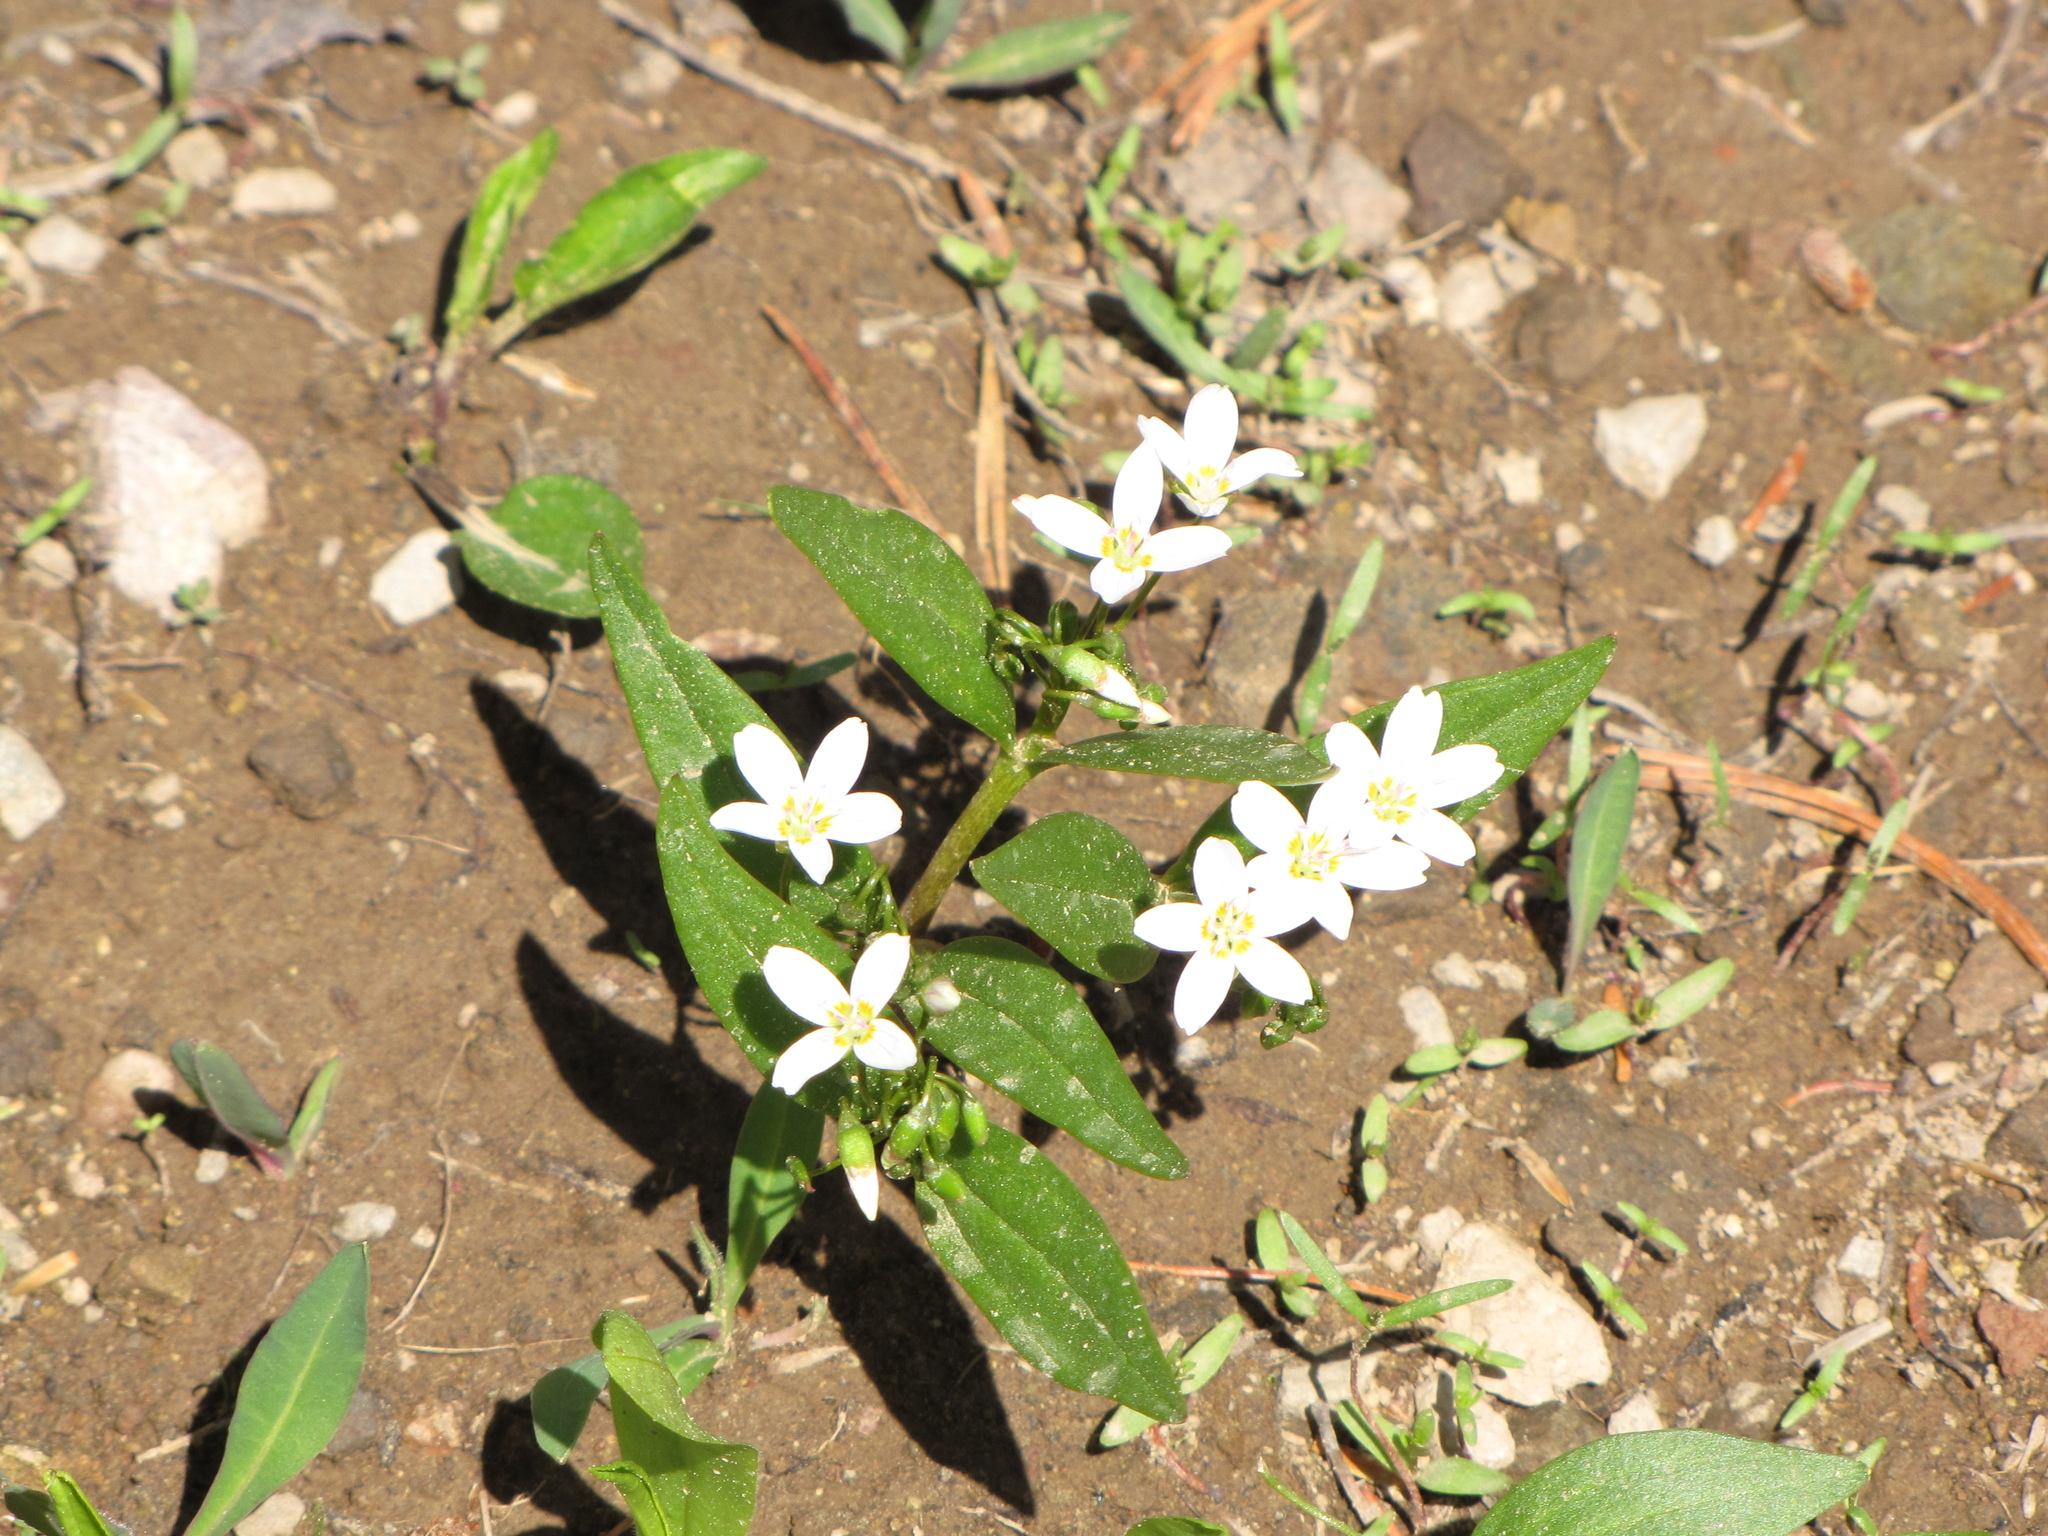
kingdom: Plantae
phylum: Tracheophyta
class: Magnoliopsida
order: Caryophyllales
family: Montiaceae
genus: Claytonia
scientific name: Claytonia lanceolata
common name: Western spring-beauty
